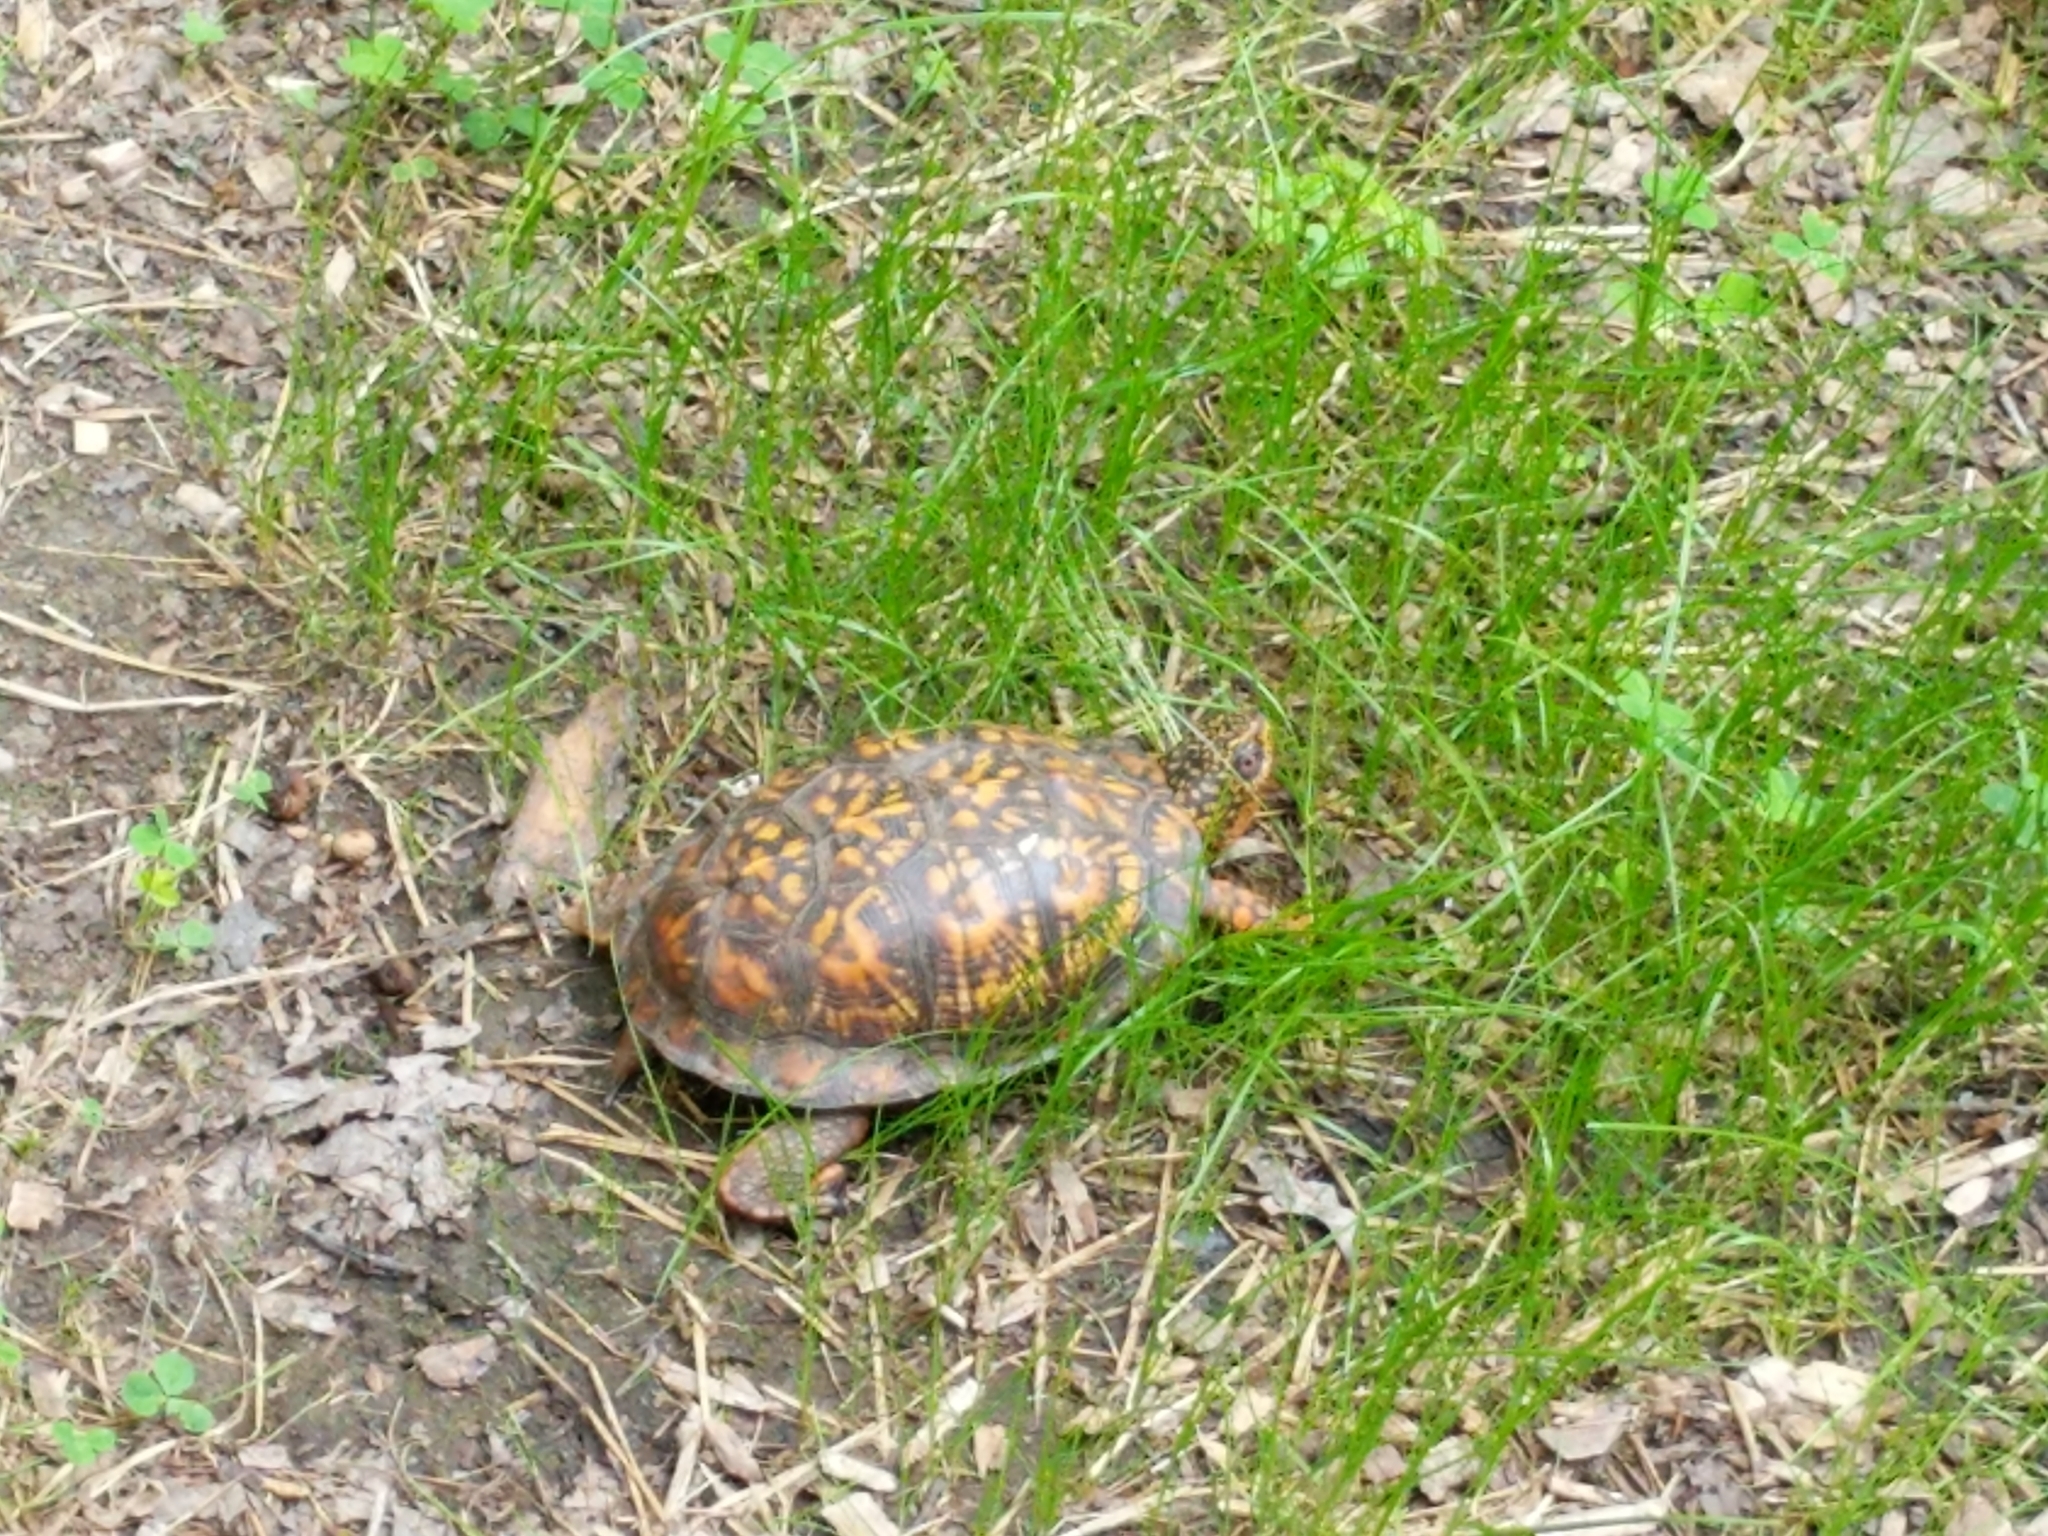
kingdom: Animalia
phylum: Chordata
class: Testudines
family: Emydidae
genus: Terrapene
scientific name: Terrapene carolina
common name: Common box turtle
